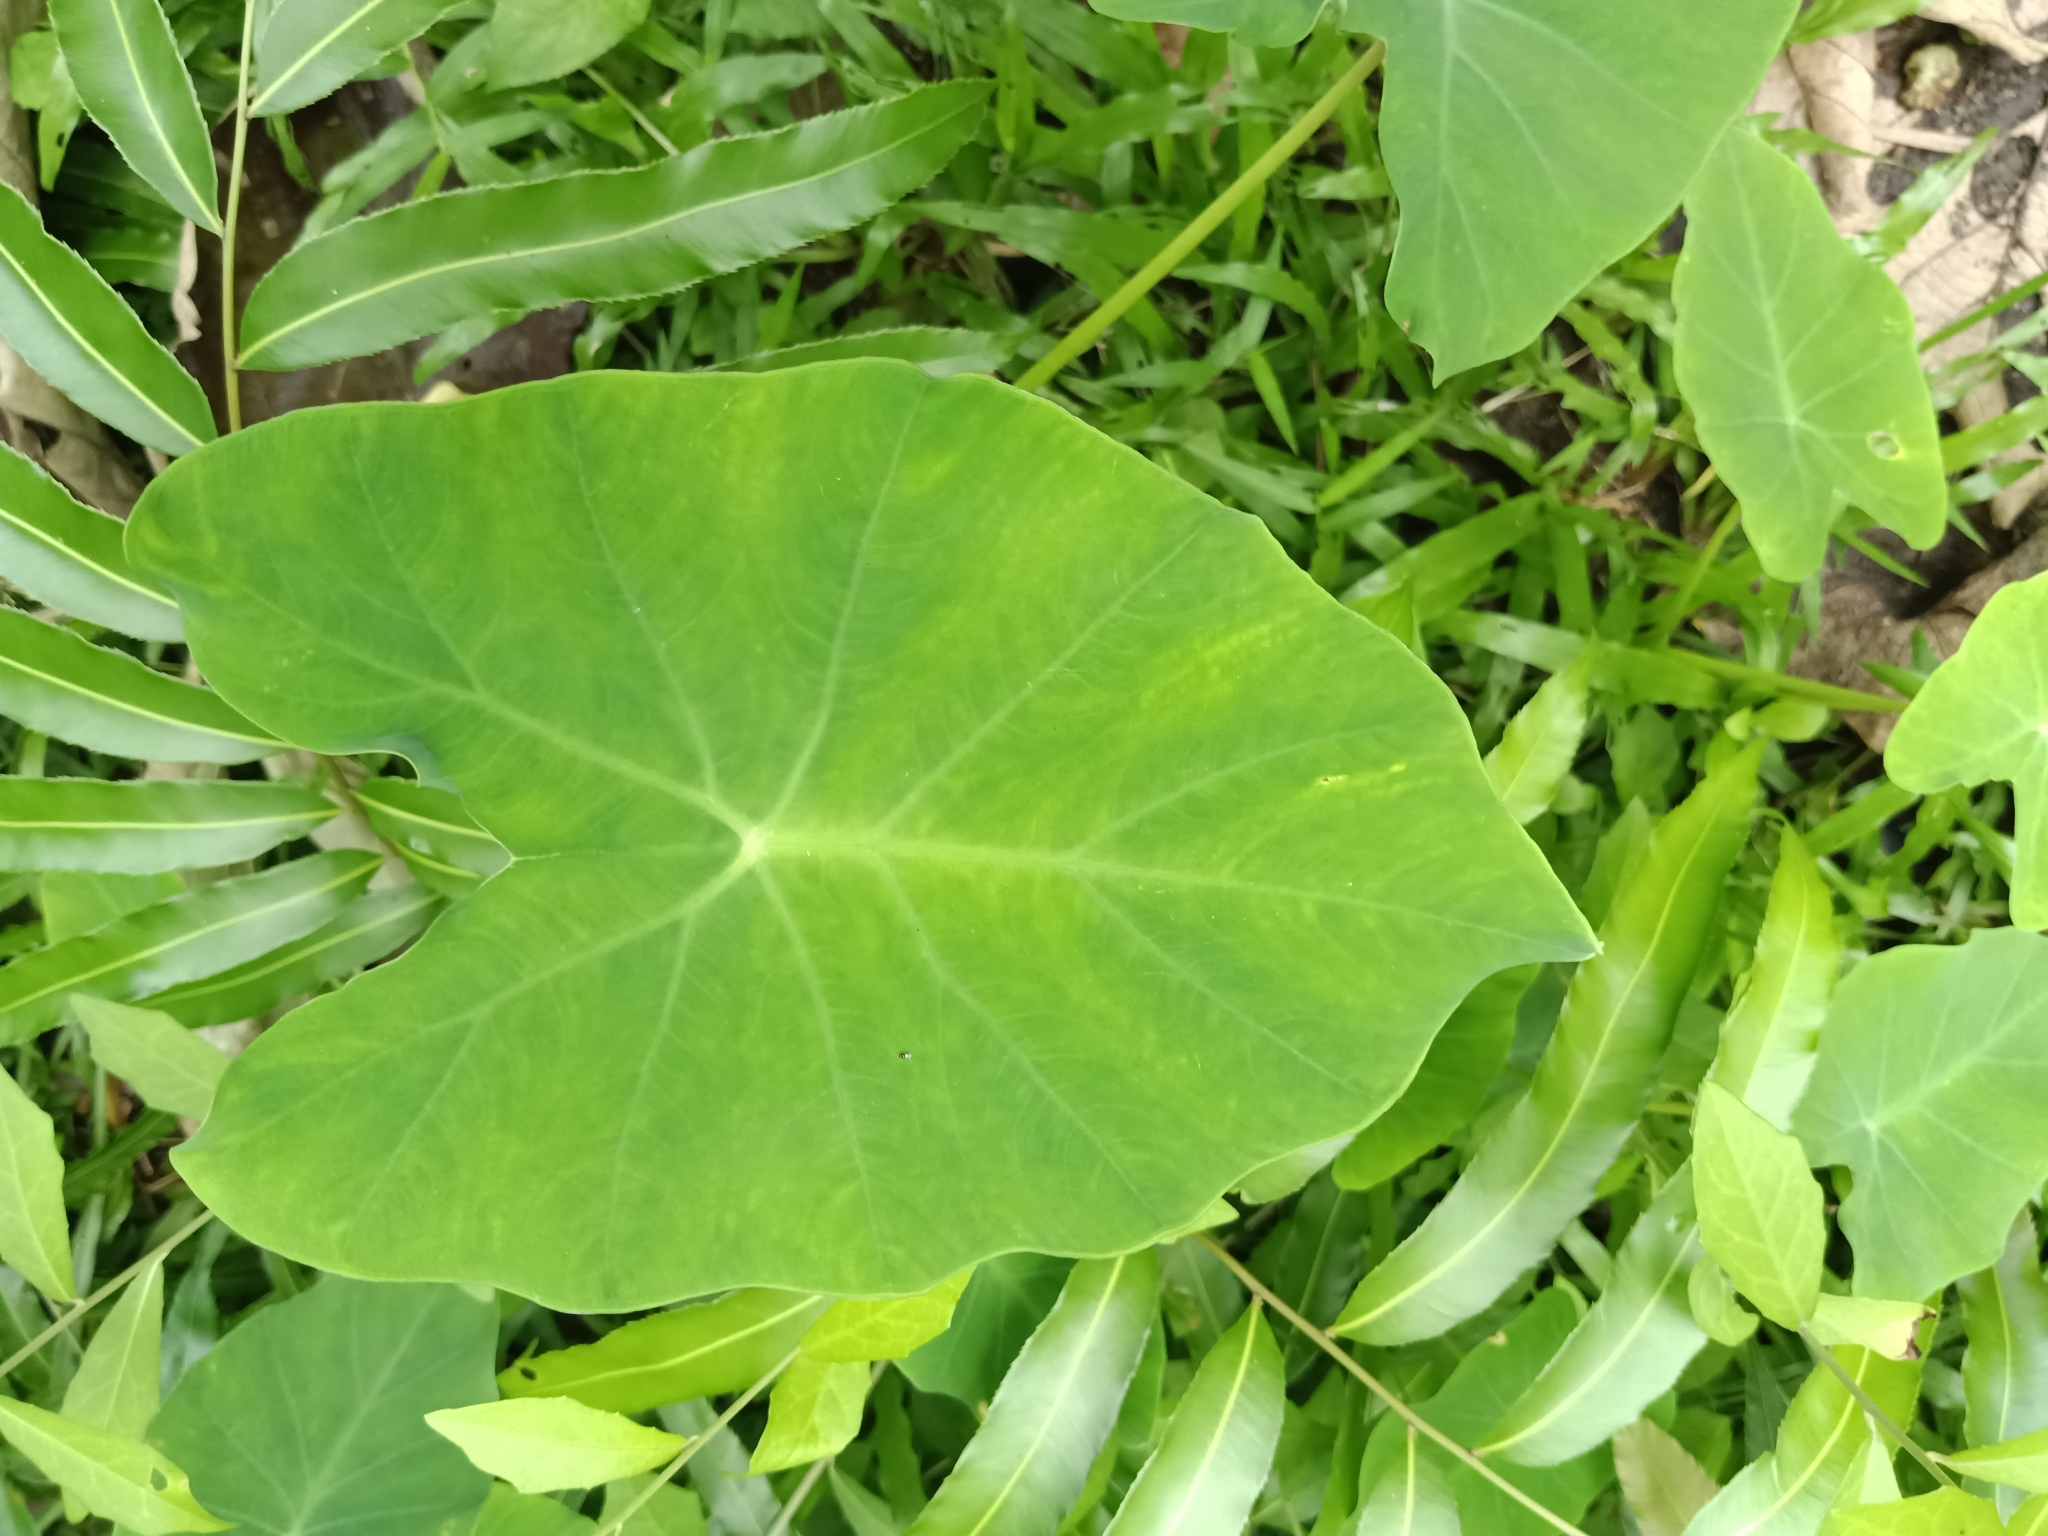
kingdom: Plantae
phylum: Tracheophyta
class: Liliopsida
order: Alismatales
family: Araceae
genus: Colocasia
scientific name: Colocasia esculenta
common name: Taro
